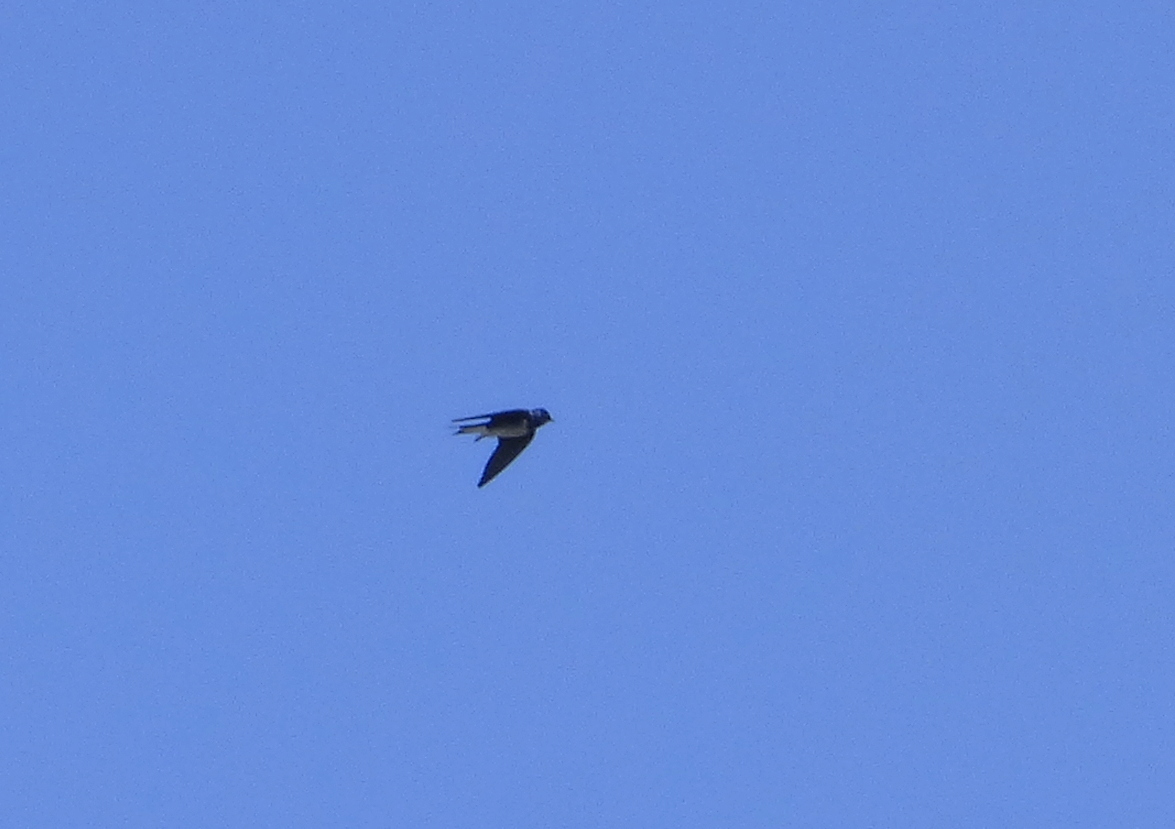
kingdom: Animalia
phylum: Chordata
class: Aves
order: Passeriformes
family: Hirundinidae
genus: Progne
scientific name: Progne chalybea
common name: Grey-breasted martin
